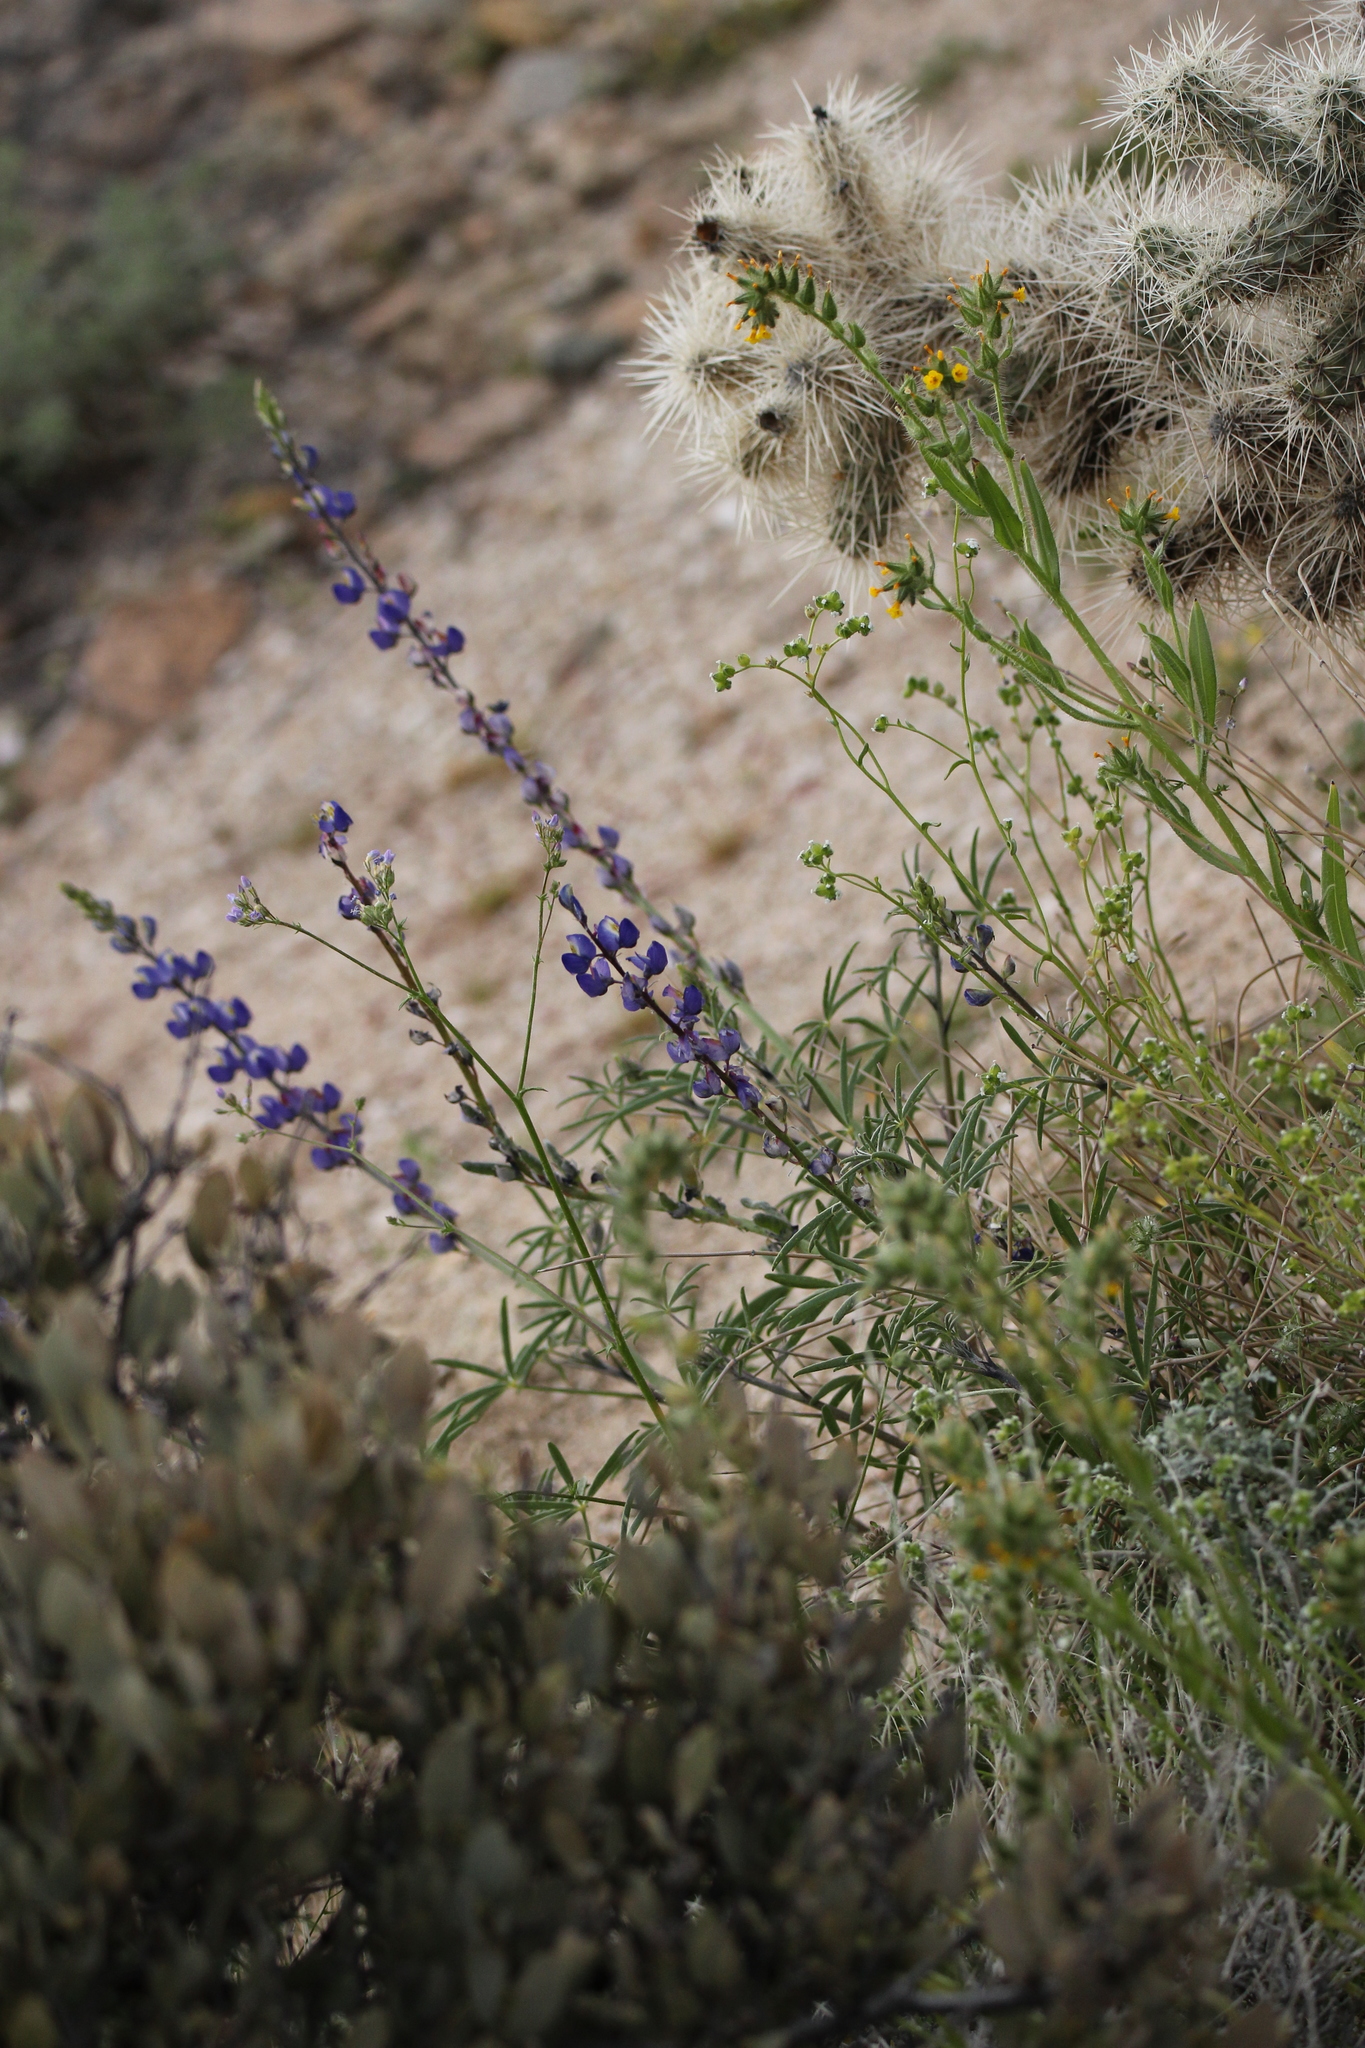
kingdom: Plantae
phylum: Tracheophyta
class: Magnoliopsida
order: Fabales
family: Fabaceae
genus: Lupinus
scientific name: Lupinus sparsiflorus
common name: Coulter's lupine
